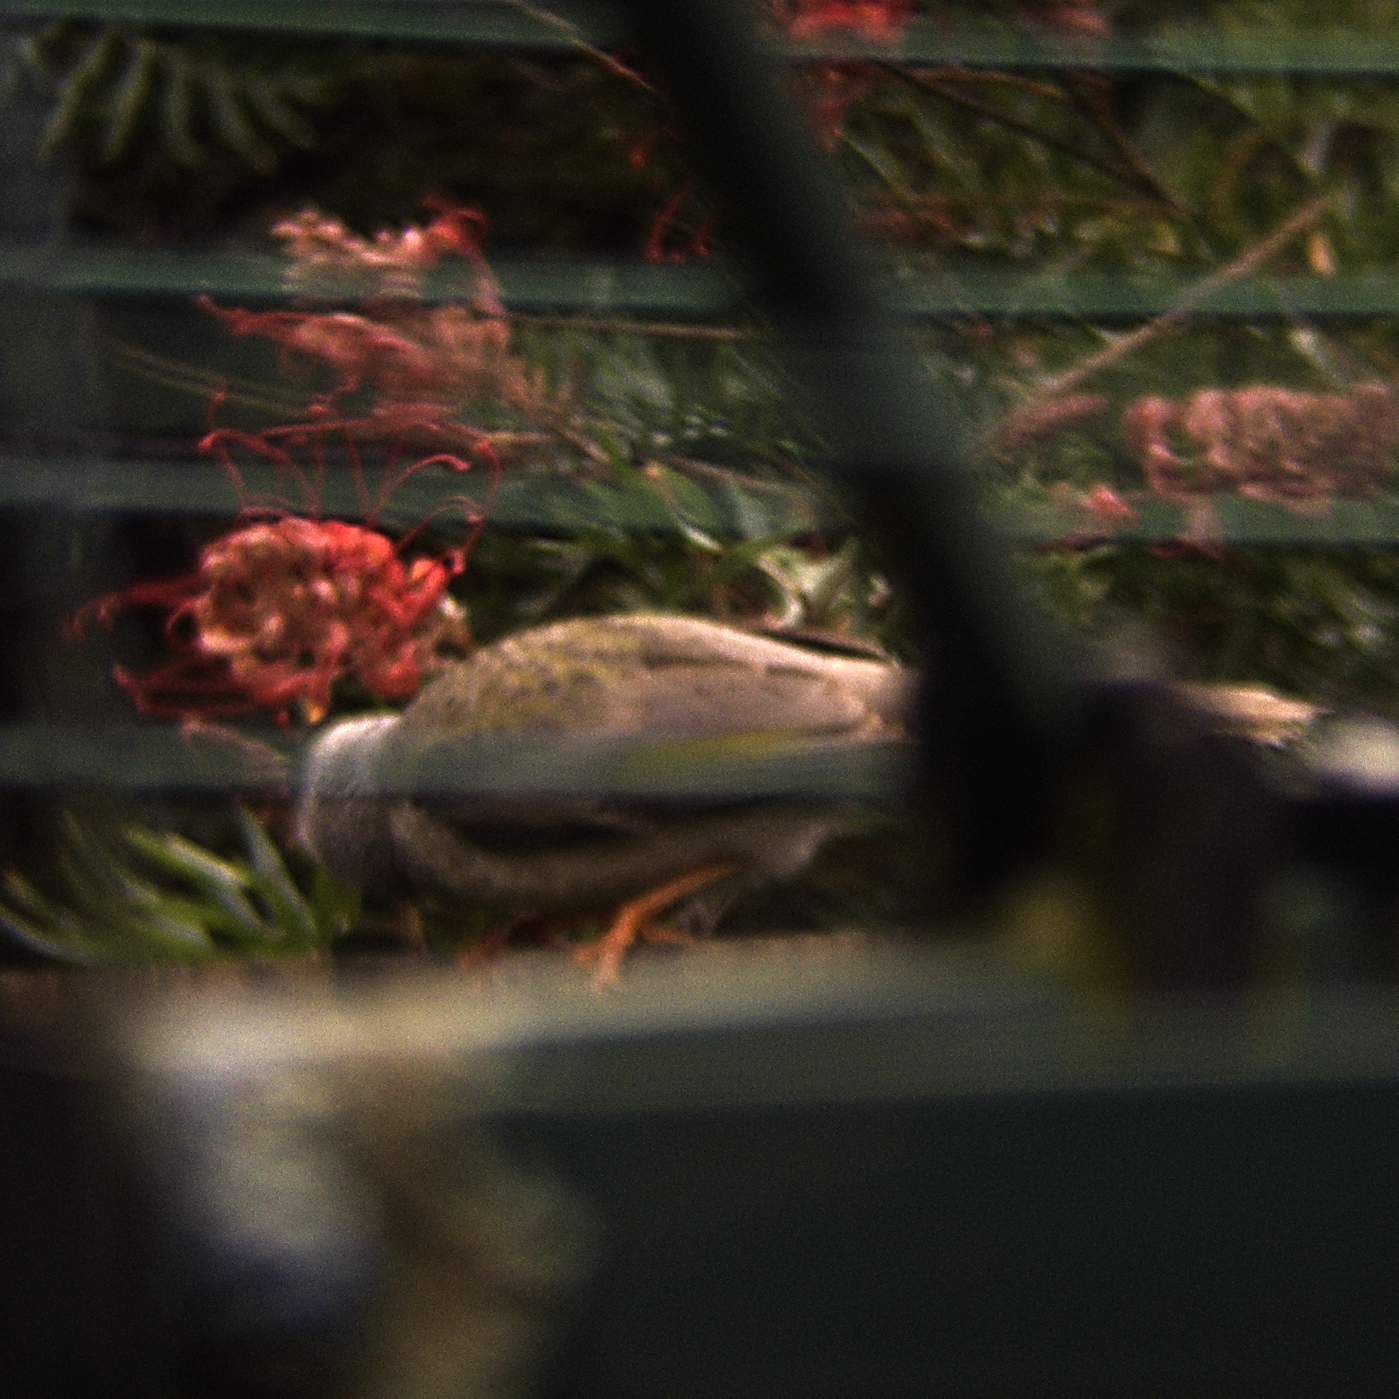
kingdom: Animalia
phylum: Chordata
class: Aves
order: Passeriformes
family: Meliphagidae
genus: Manorina
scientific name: Manorina melanocephala
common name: Noisy miner
